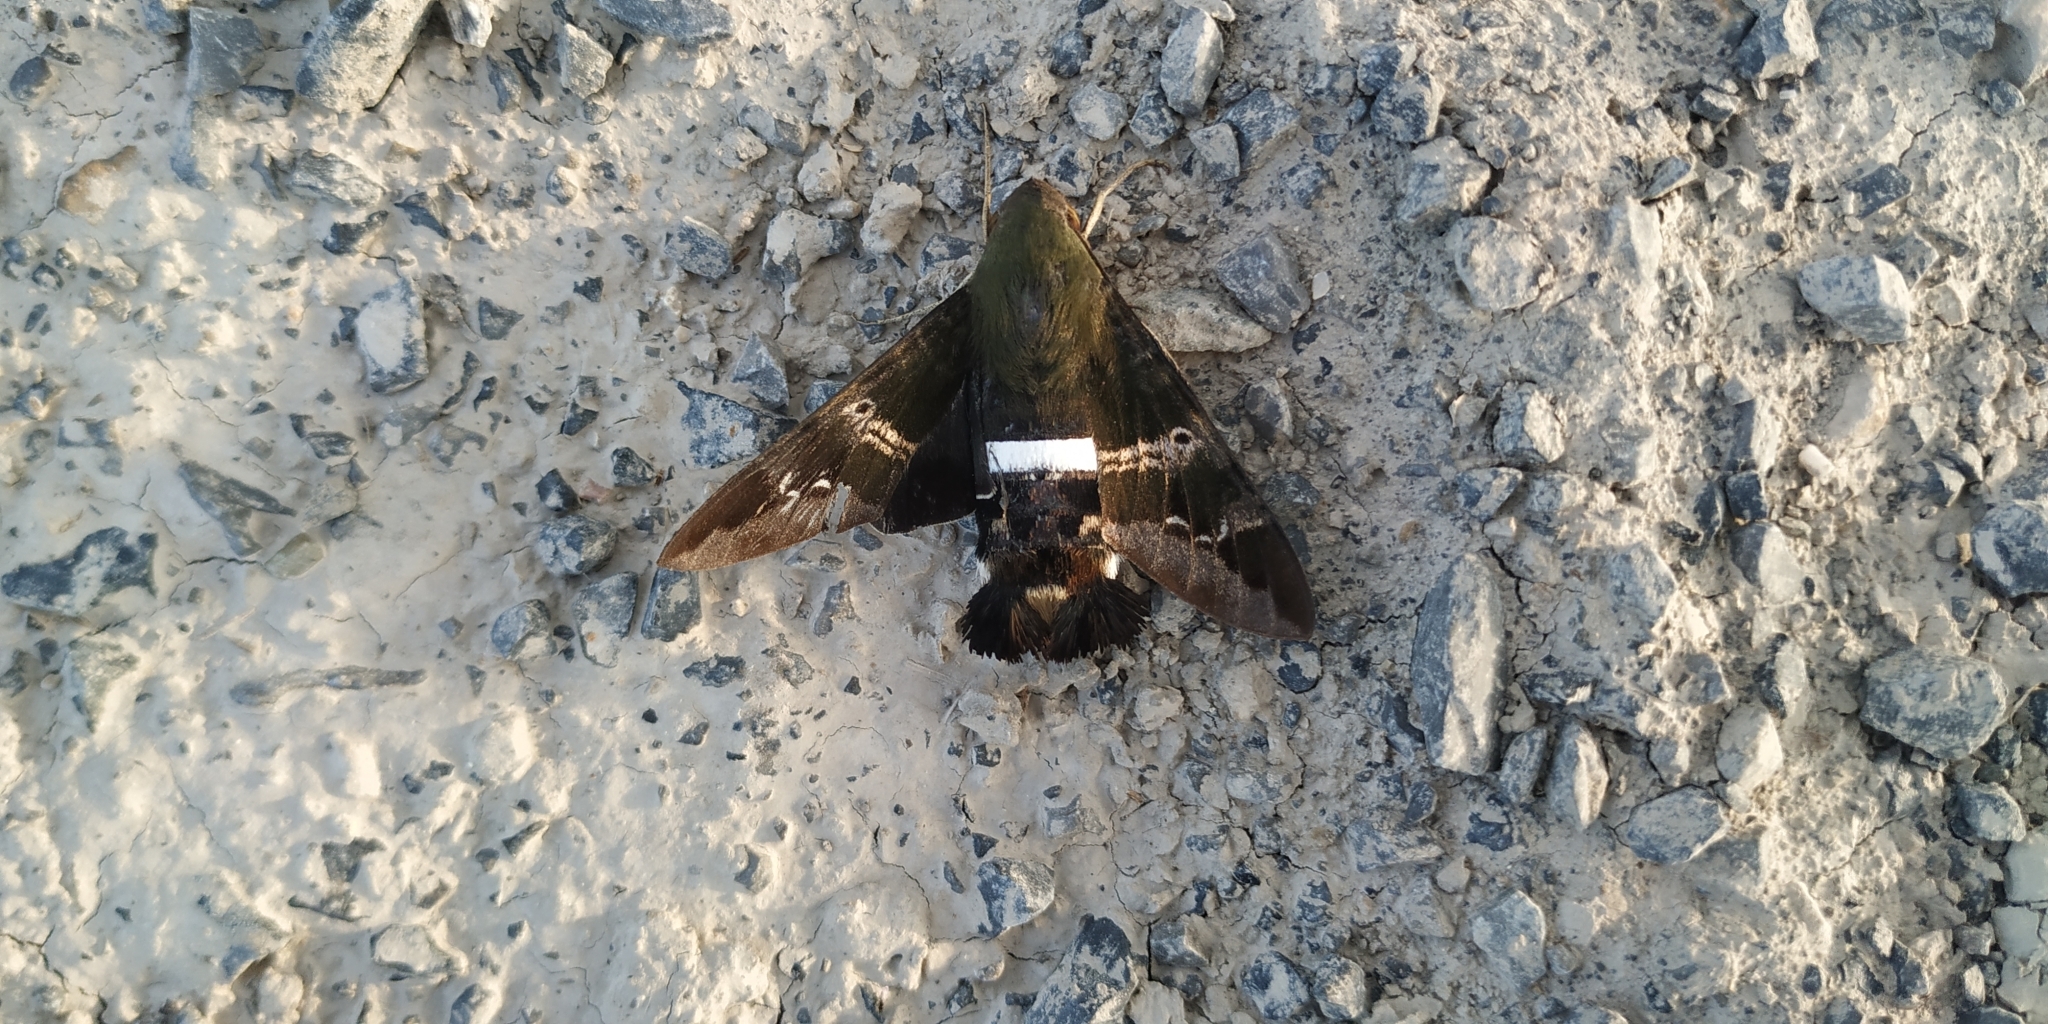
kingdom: Animalia
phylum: Arthropoda
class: Insecta
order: Lepidoptera
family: Sphingidae
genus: Aellopos
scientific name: Aellopos clavipes
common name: Clavipes sphinx
